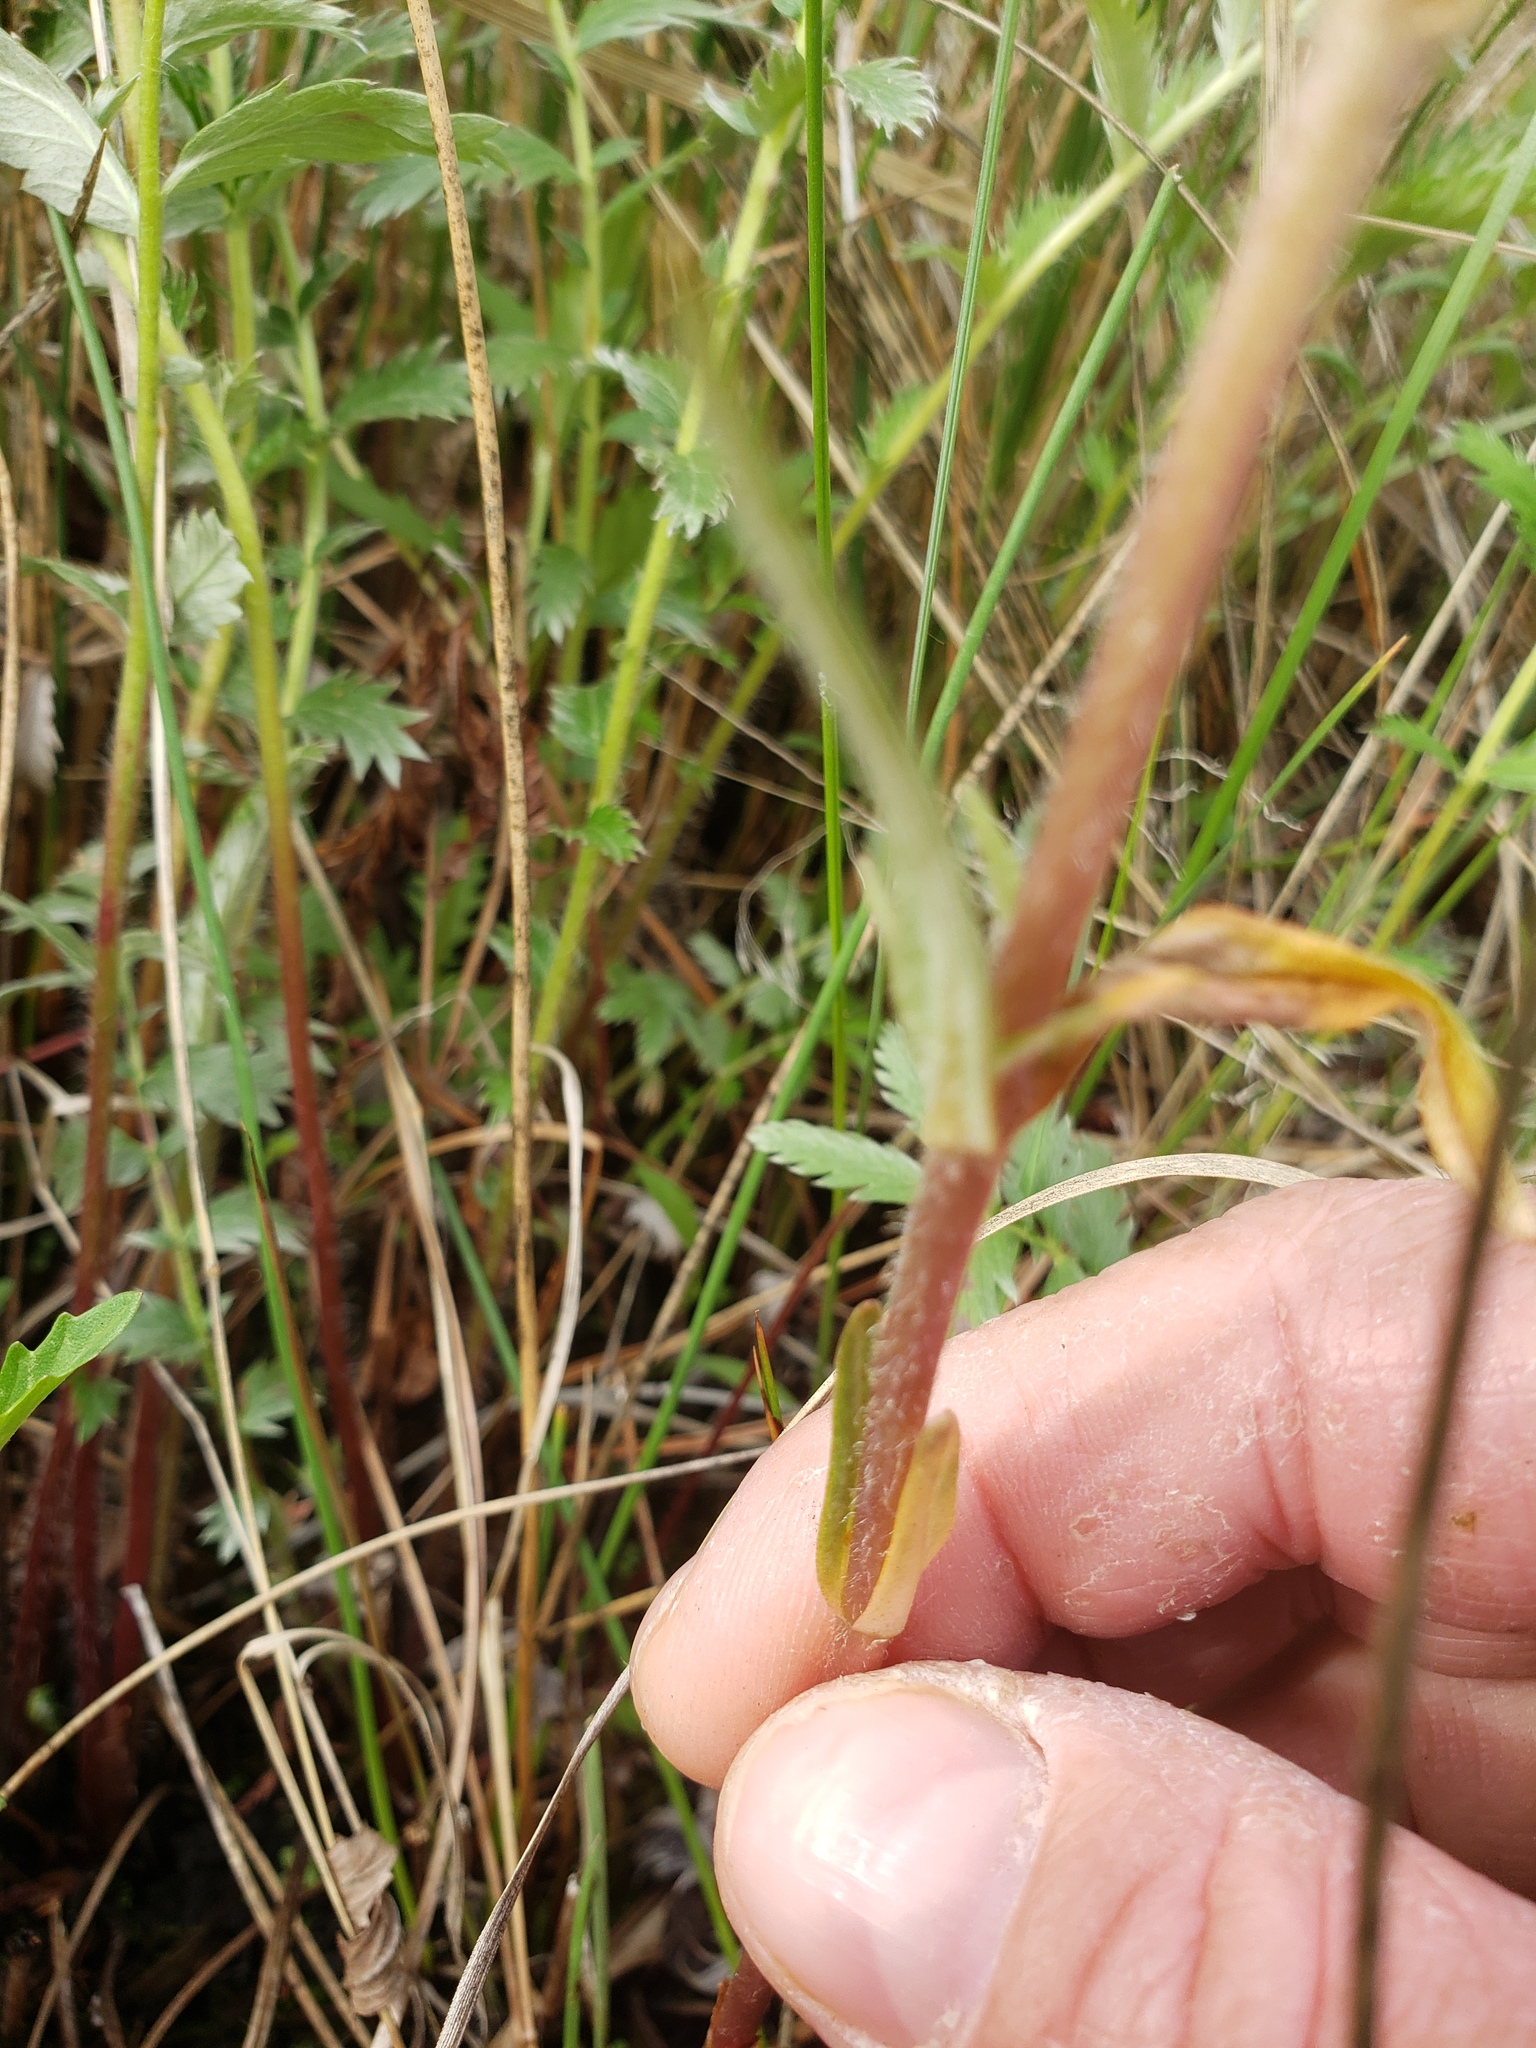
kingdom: Plantae
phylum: Tracheophyta
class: Magnoliopsida
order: Ericales
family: Primulaceae
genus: Lysimachia
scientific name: Lysimachia thyrsiflora
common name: Tufted loosestrife
